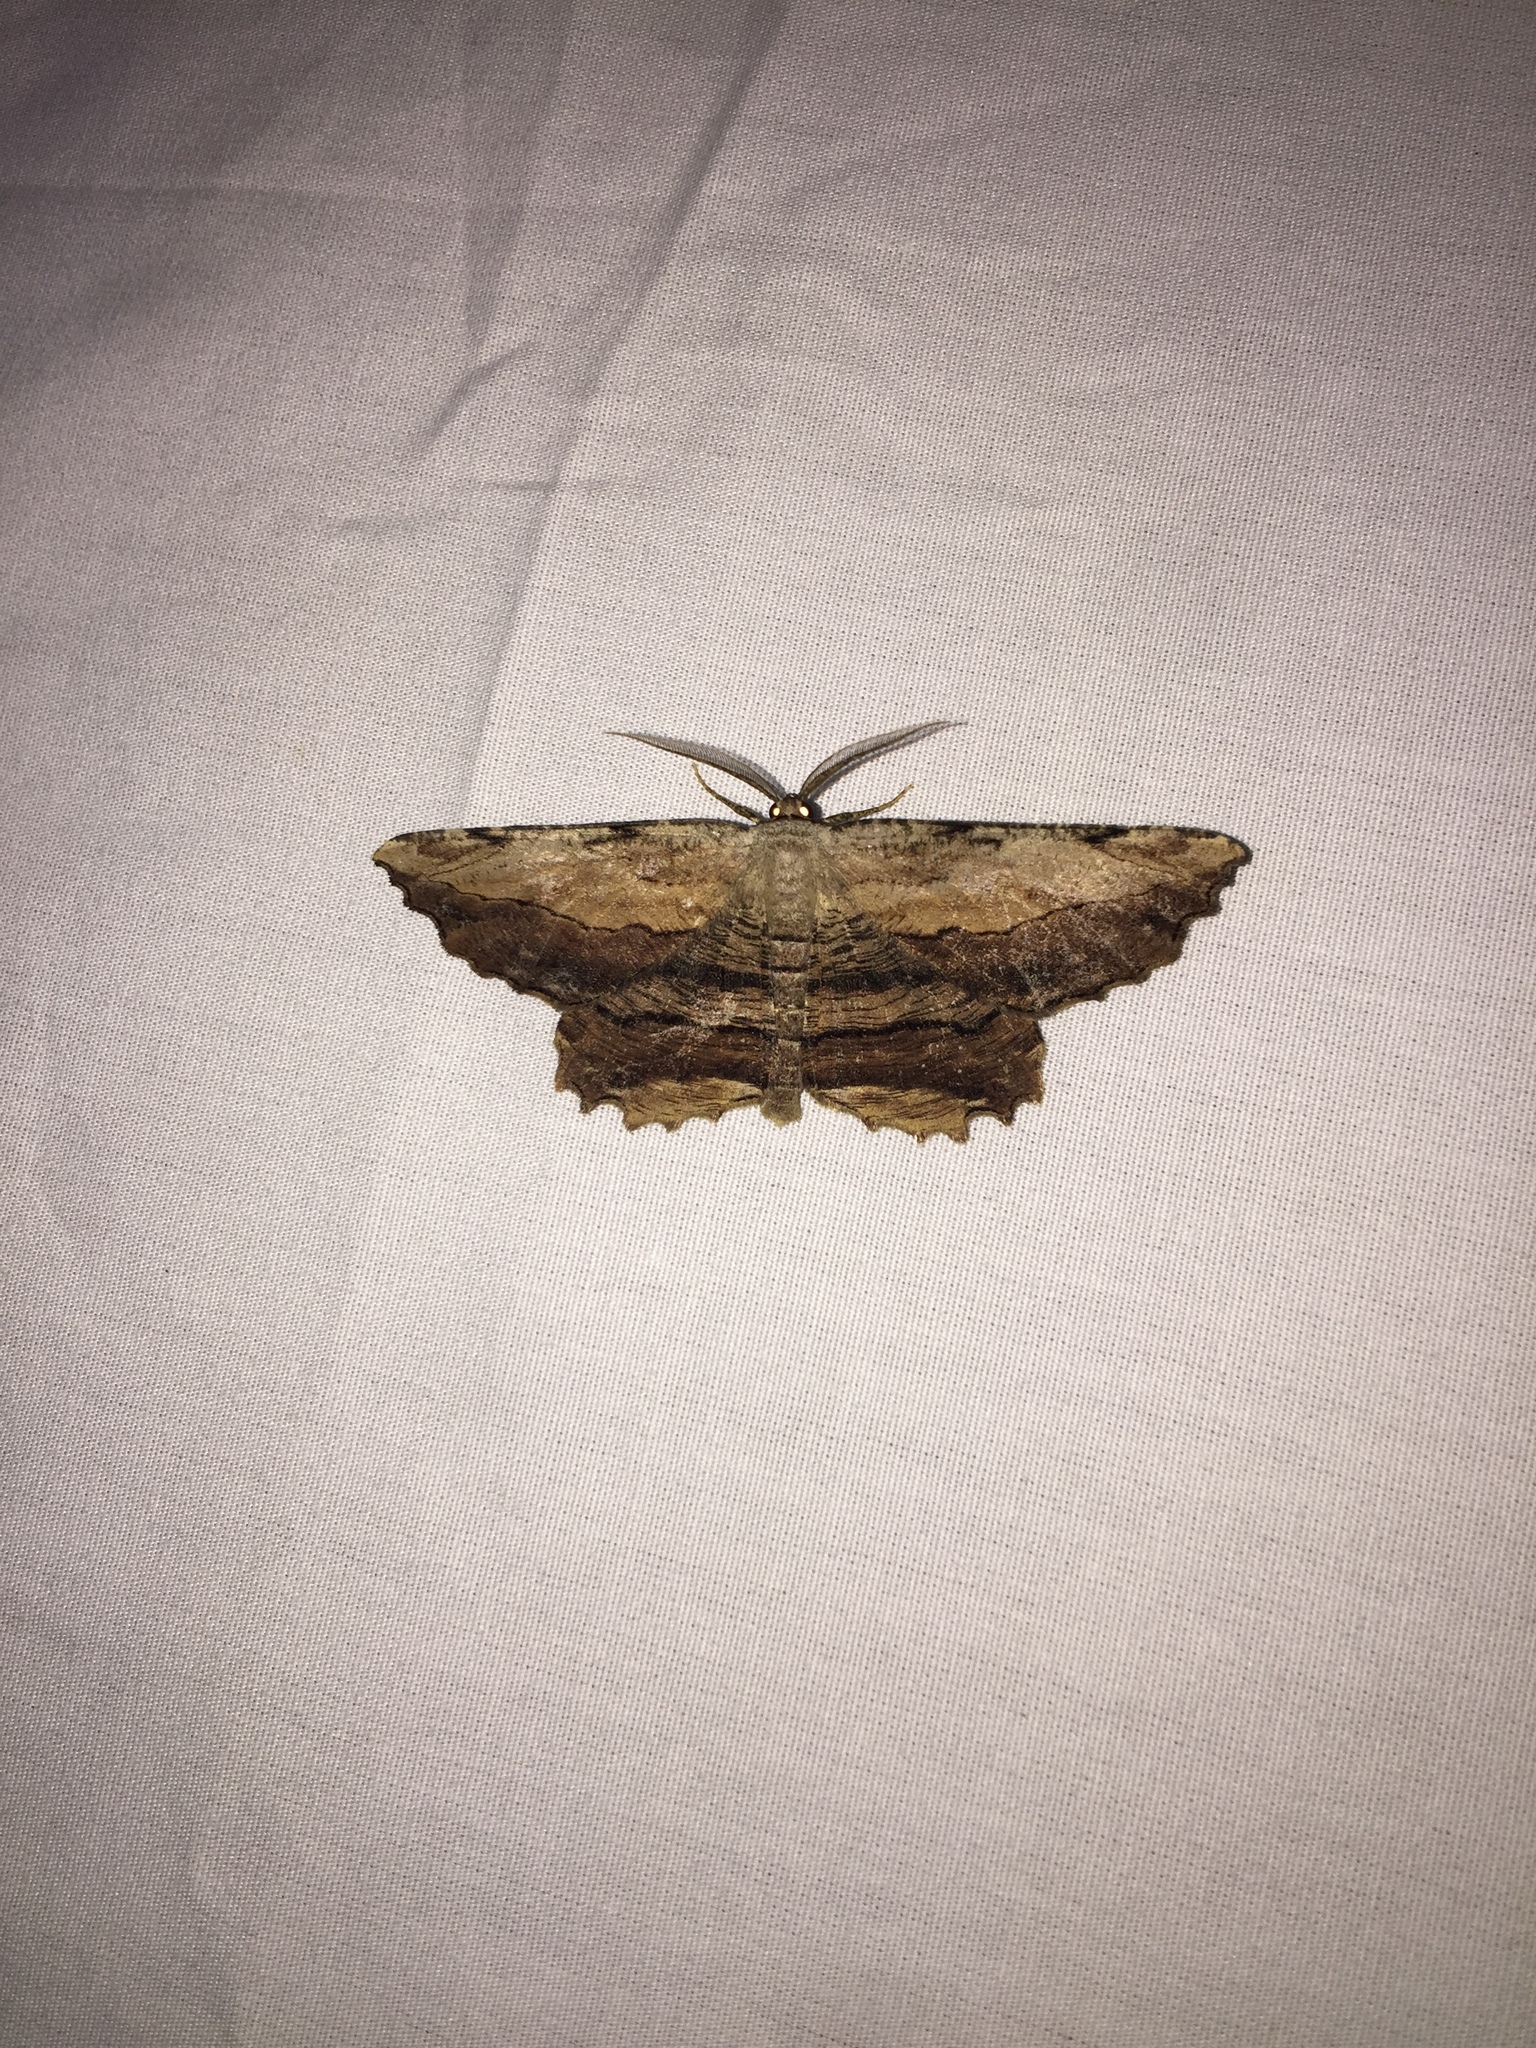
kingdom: Animalia
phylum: Arthropoda
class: Insecta
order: Lepidoptera
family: Geometridae
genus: Lytrosis
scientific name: Lytrosis unitaria
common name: Common lytrosis
